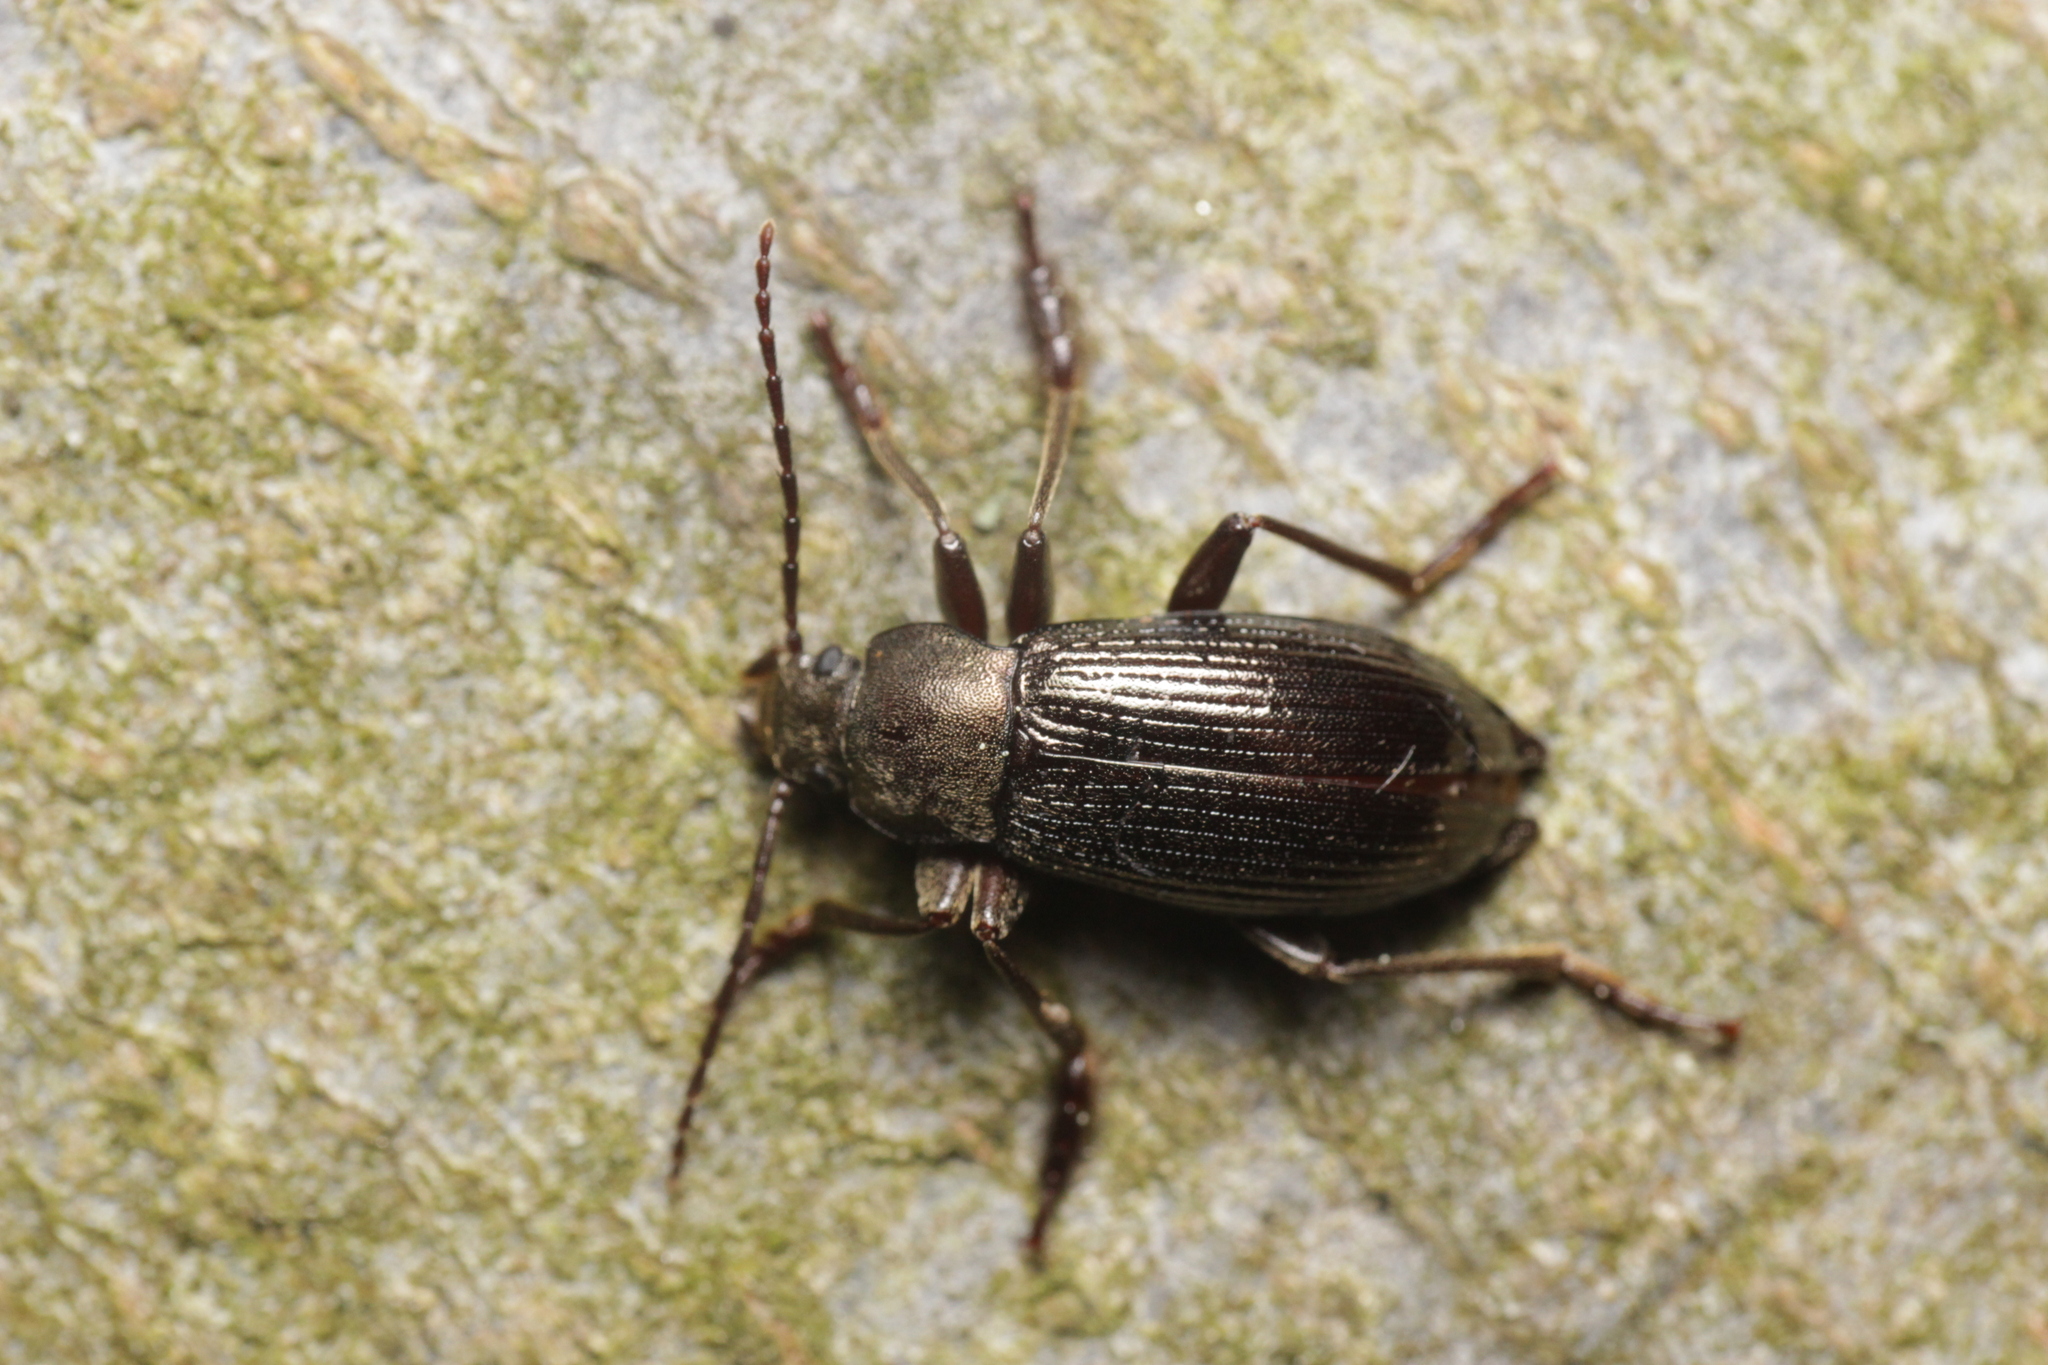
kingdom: Animalia
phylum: Arthropoda
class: Insecta
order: Coleoptera
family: Tenebrionidae
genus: Stenomax
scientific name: Stenomax aeneus
